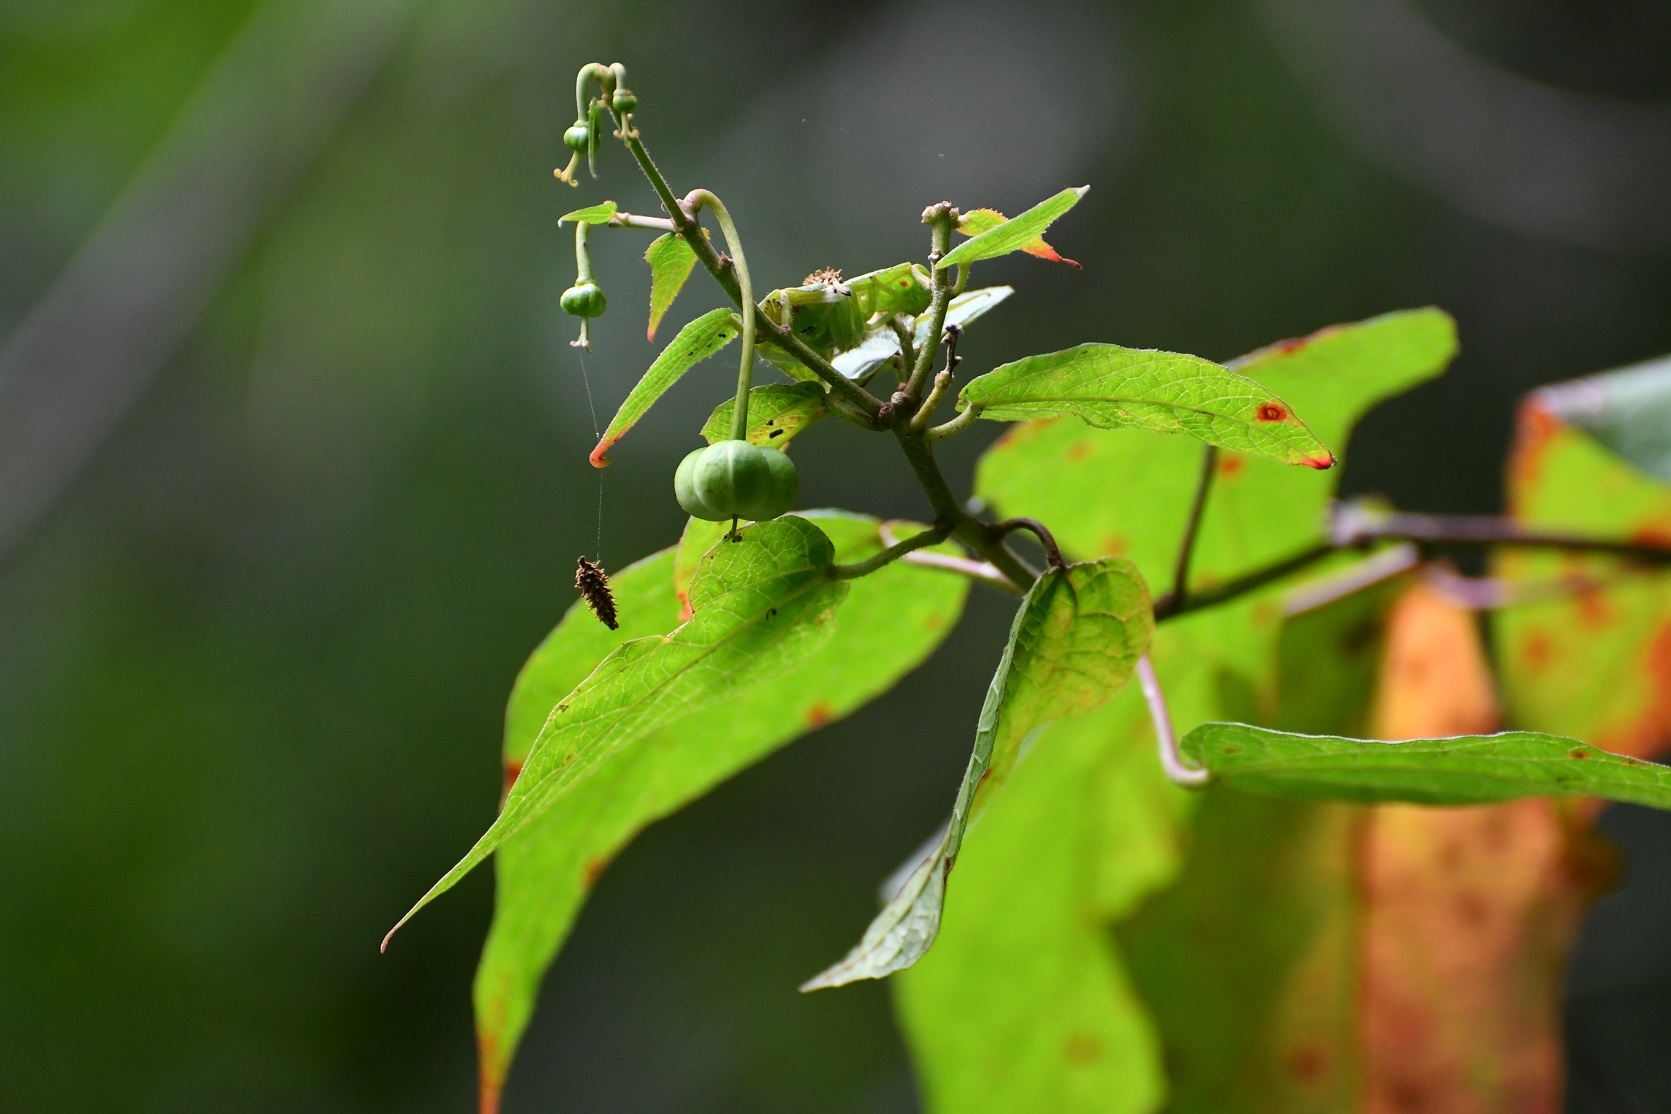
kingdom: Plantae
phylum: Tracheophyta
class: Magnoliopsida
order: Malpighiales
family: Euphorbiaceae
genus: Dalembertia
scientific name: Dalembertia triangularis
